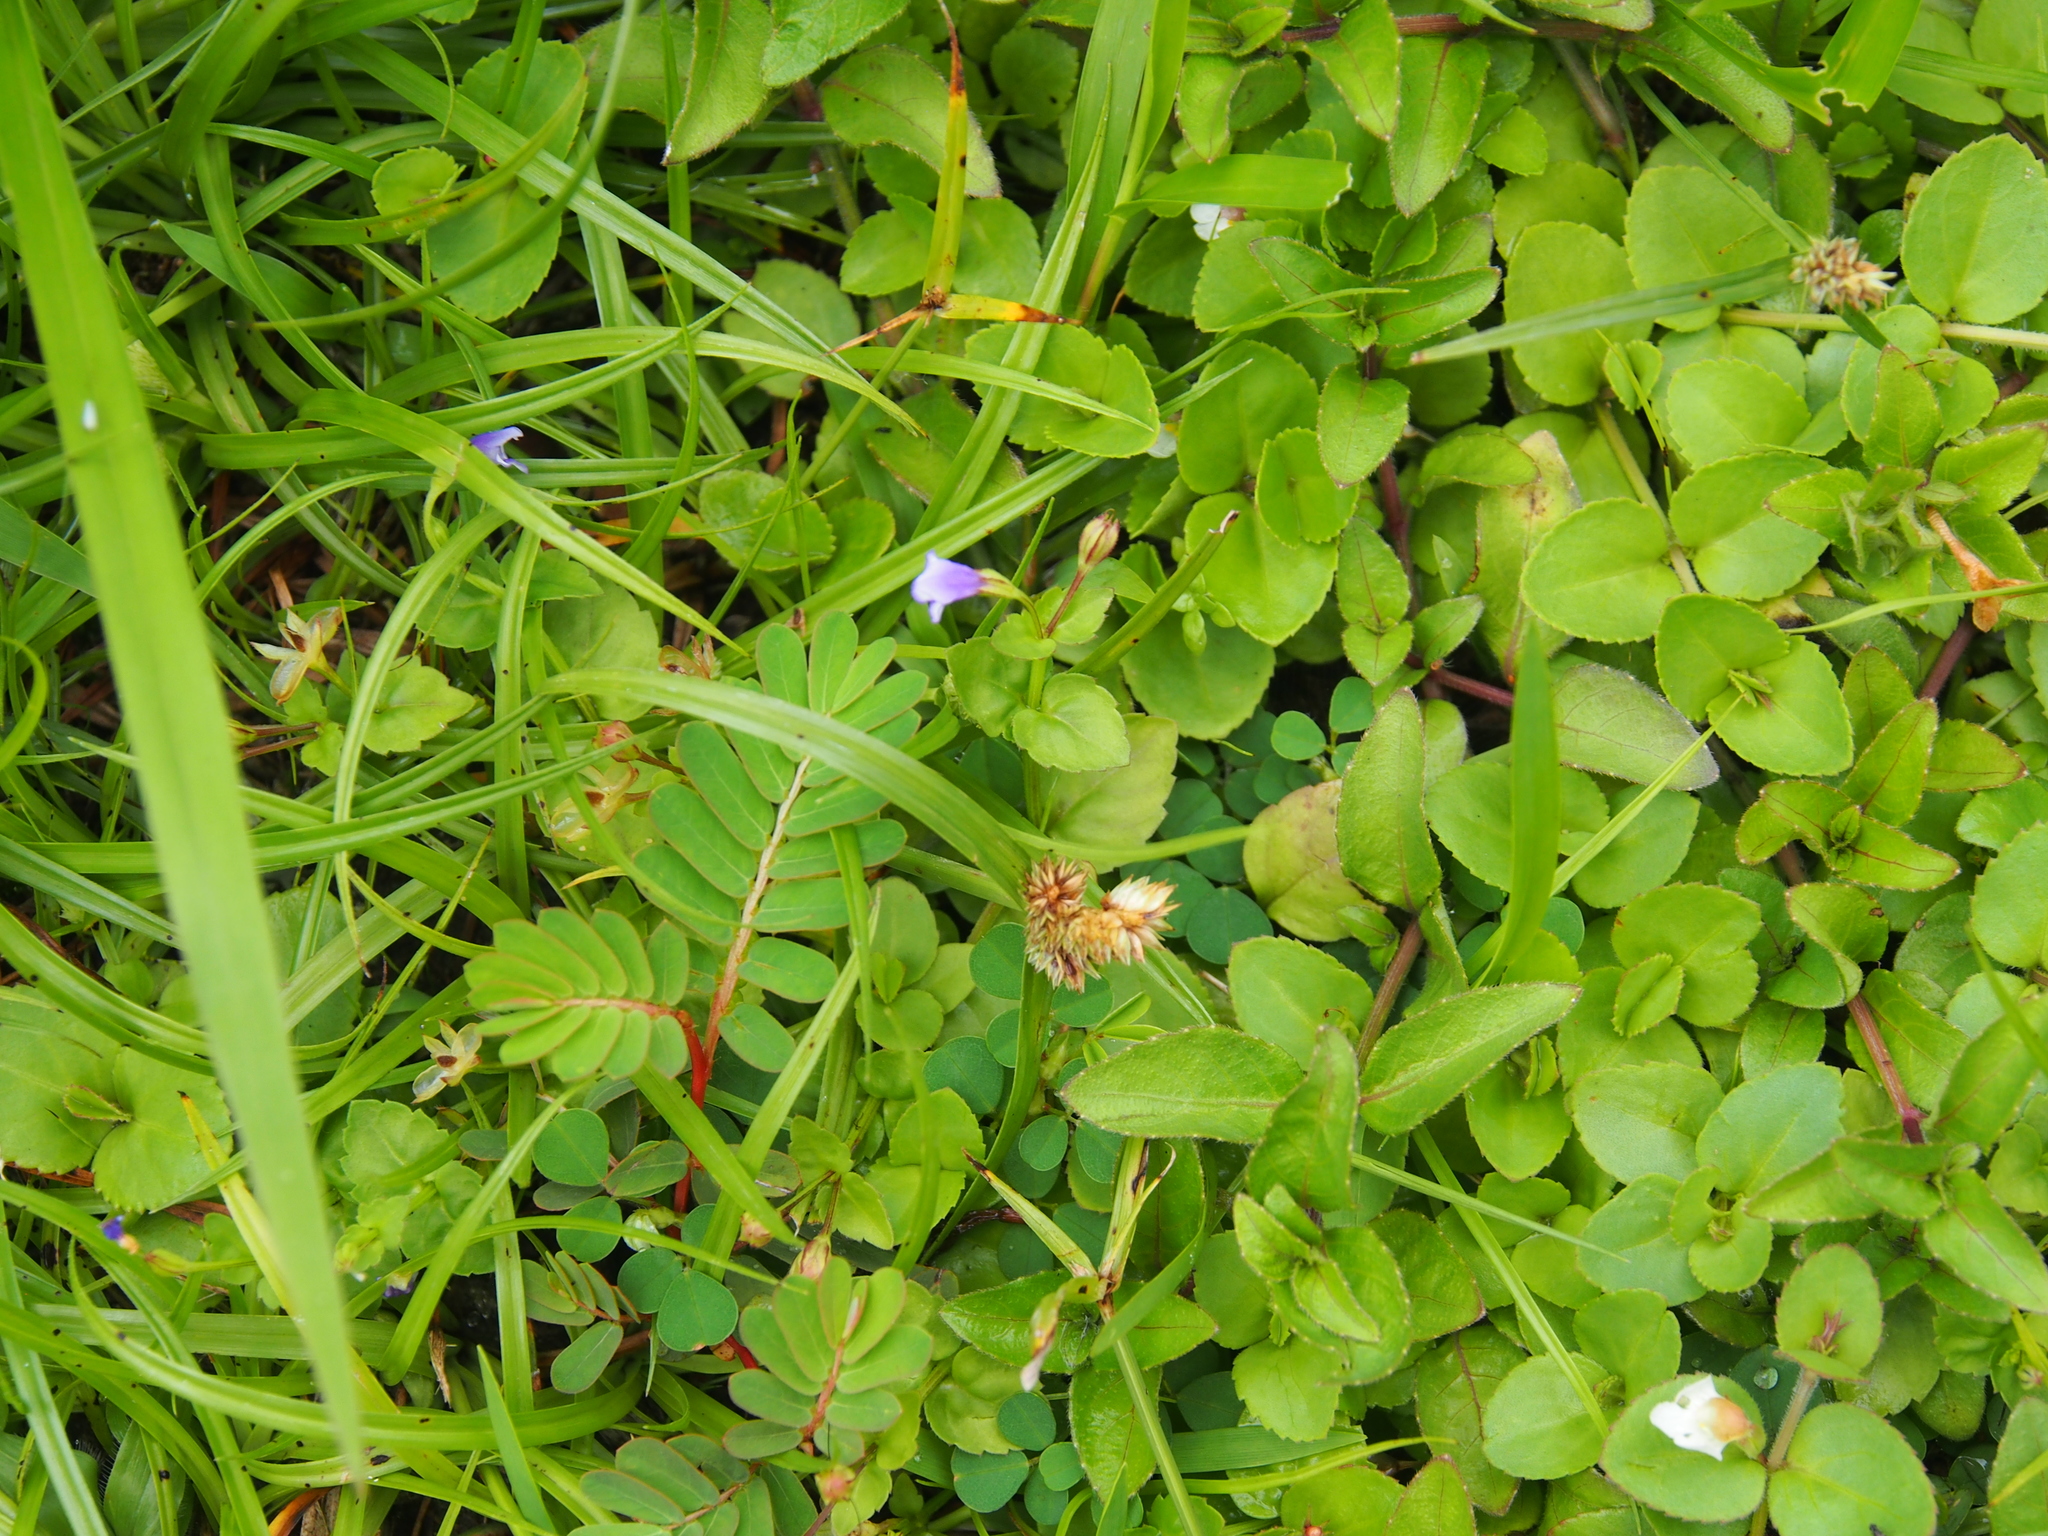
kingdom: Plantae
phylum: Tracheophyta
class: Magnoliopsida
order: Lamiales
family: Linderniaceae
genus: Torenia
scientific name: Torenia crustacea
